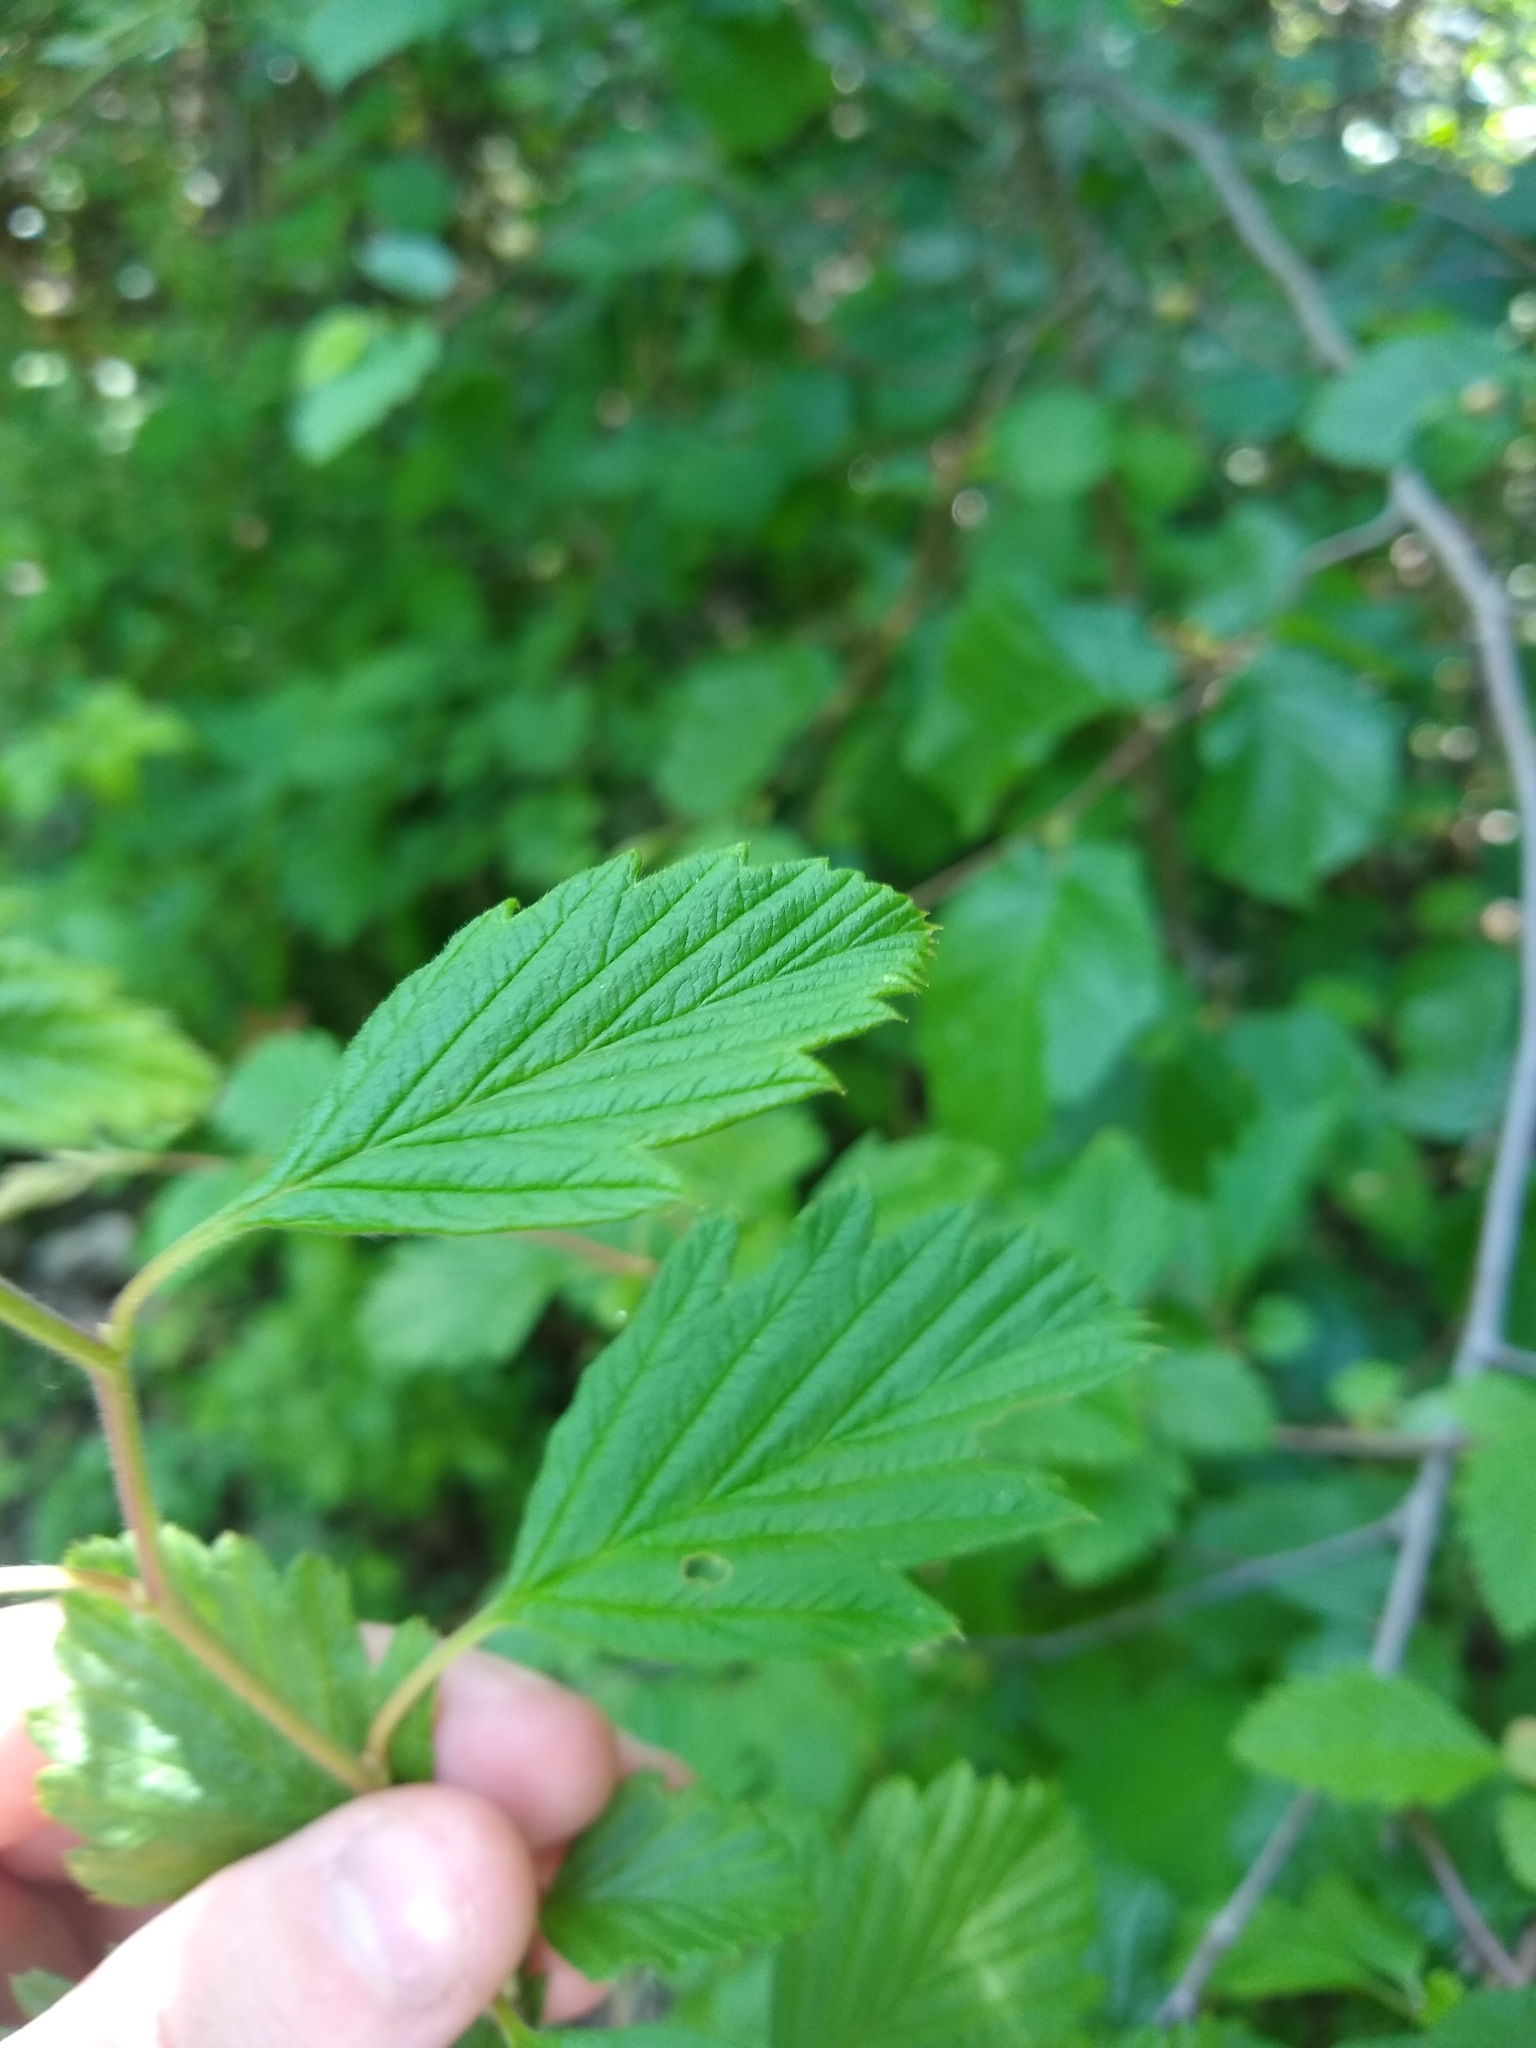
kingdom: Plantae
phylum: Tracheophyta
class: Magnoliopsida
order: Rosales
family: Rosaceae
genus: Holodiscus
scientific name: Holodiscus discolor
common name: Oceanspray
